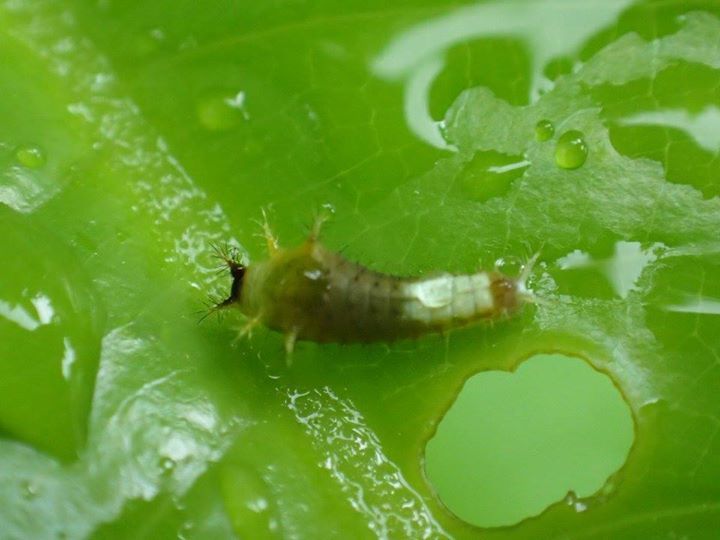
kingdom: Animalia
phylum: Arthropoda
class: Insecta
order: Lepidoptera
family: Papilionidae
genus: Graphium
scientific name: Graphium agamemnon
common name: Tailed jay
